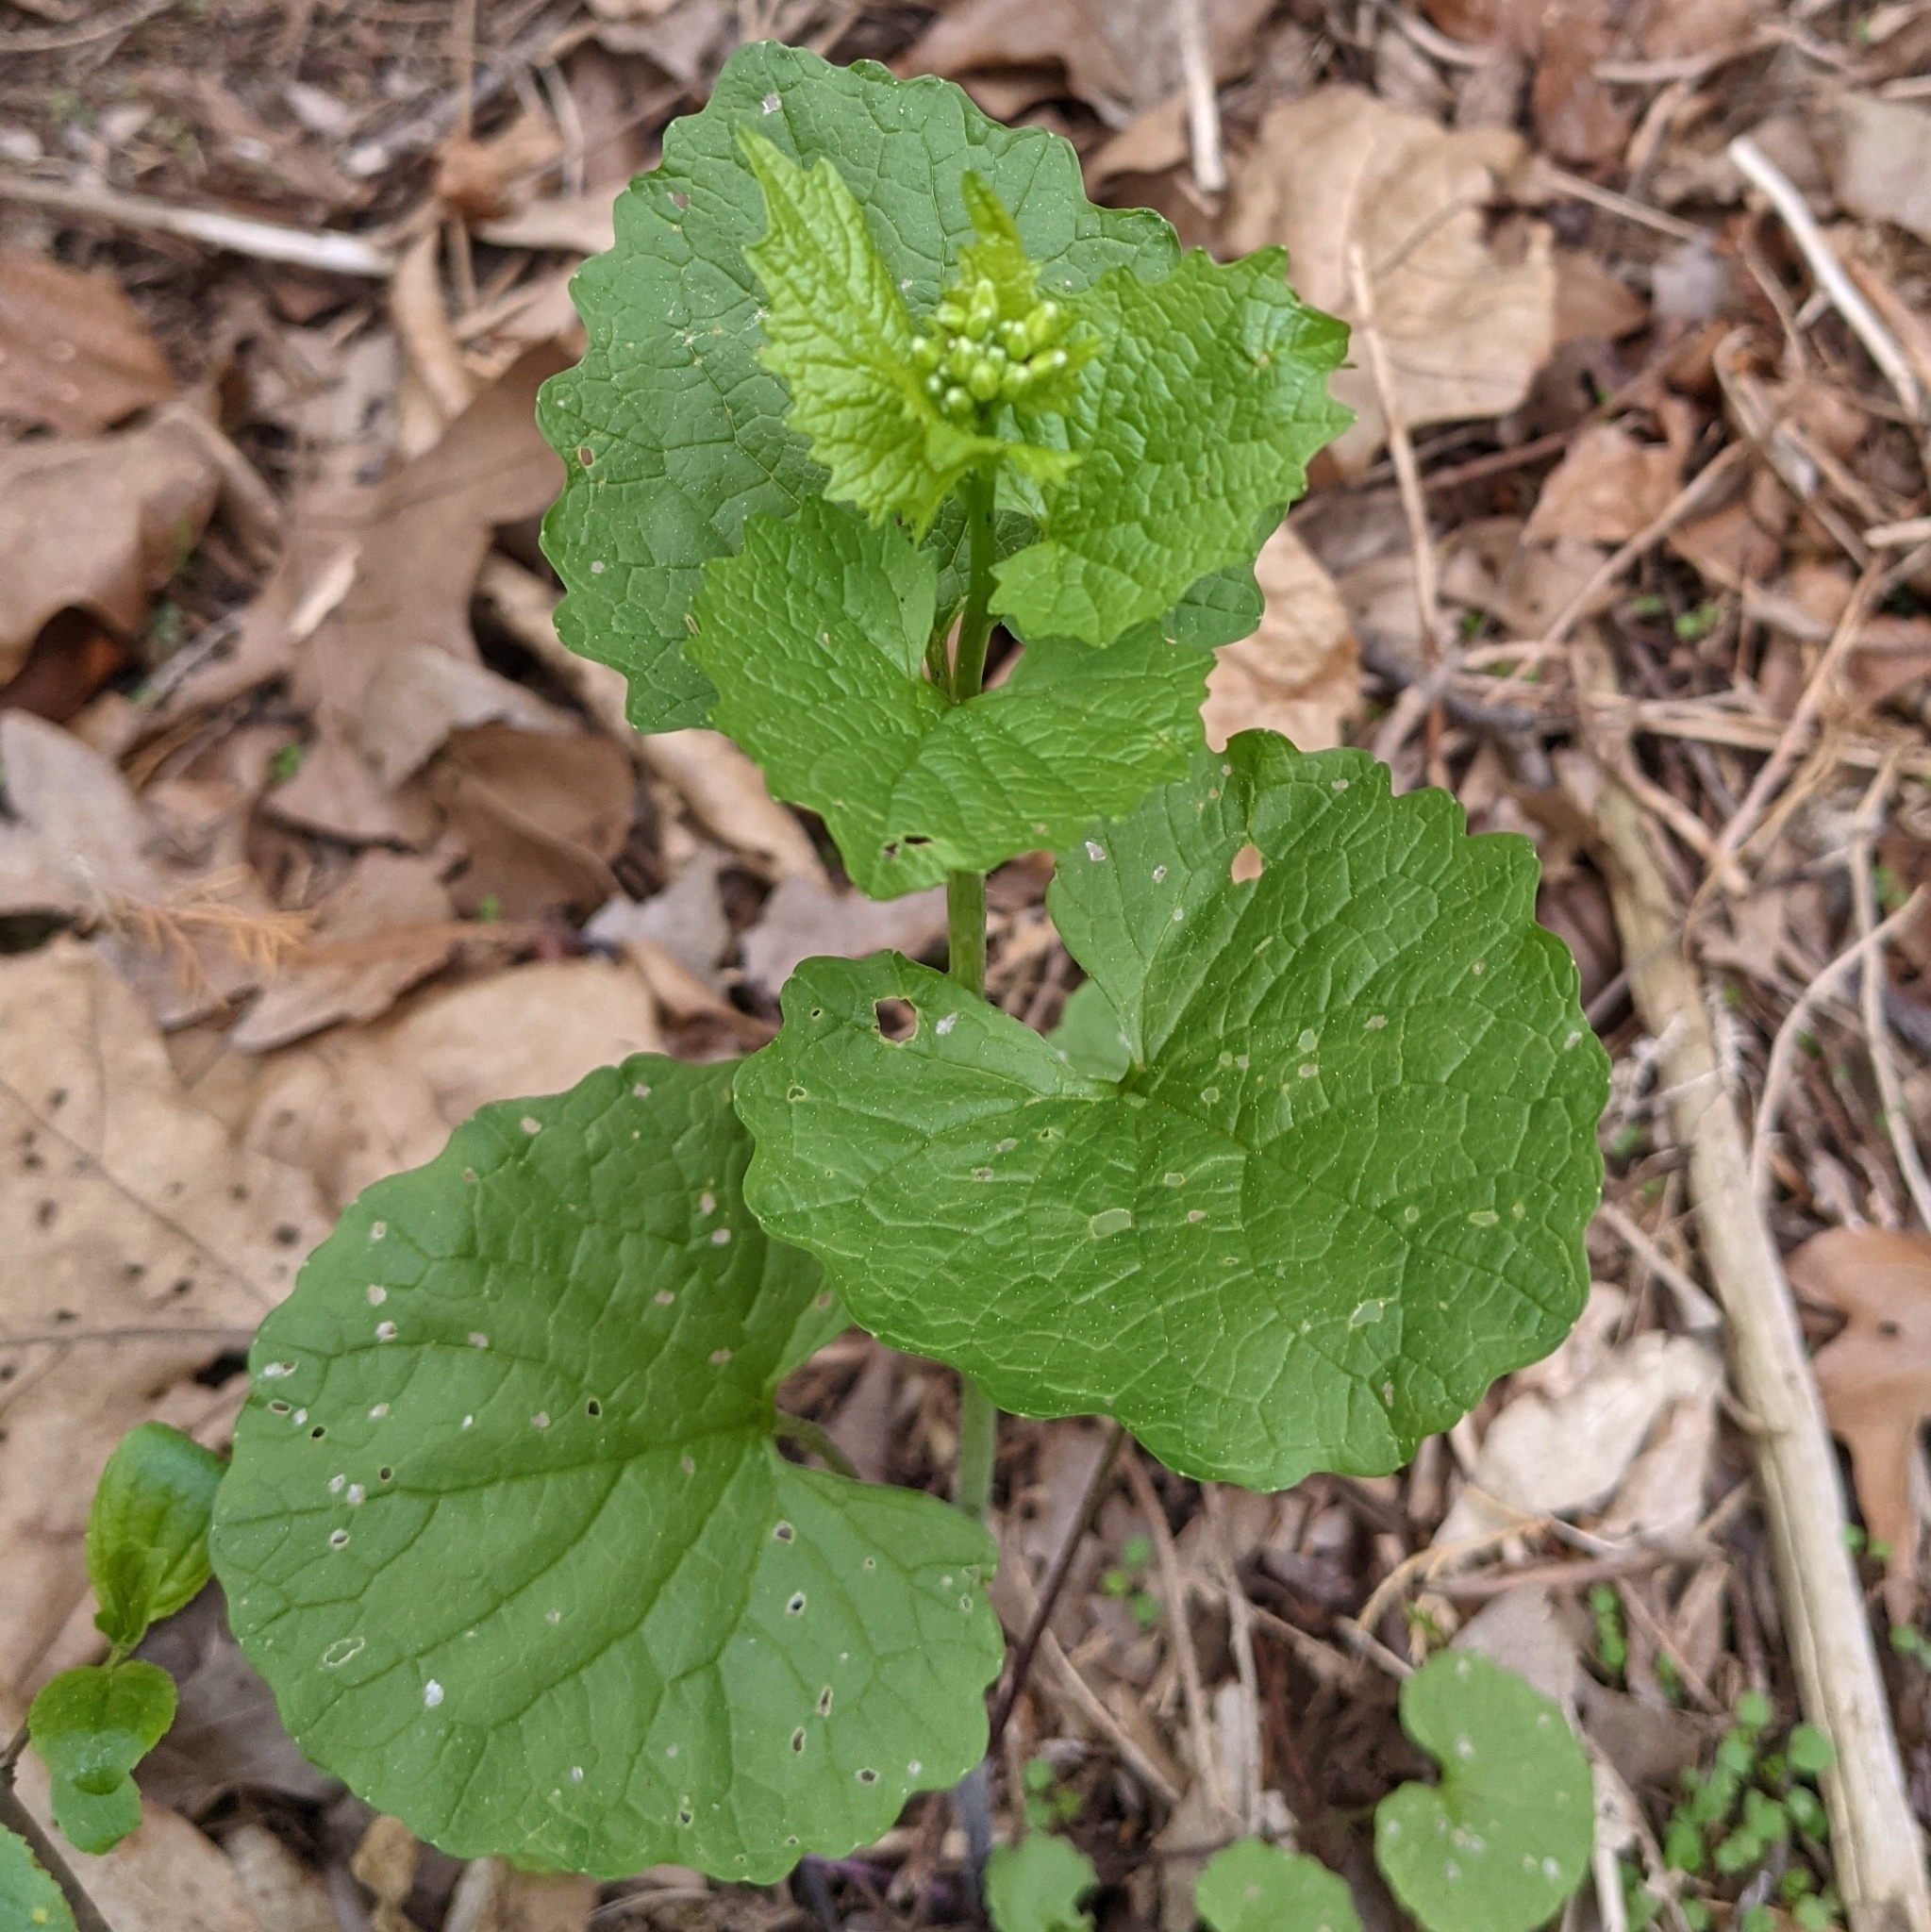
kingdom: Plantae
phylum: Tracheophyta
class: Magnoliopsida
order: Brassicales
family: Brassicaceae
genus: Alliaria
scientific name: Alliaria petiolata
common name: Garlic mustard
